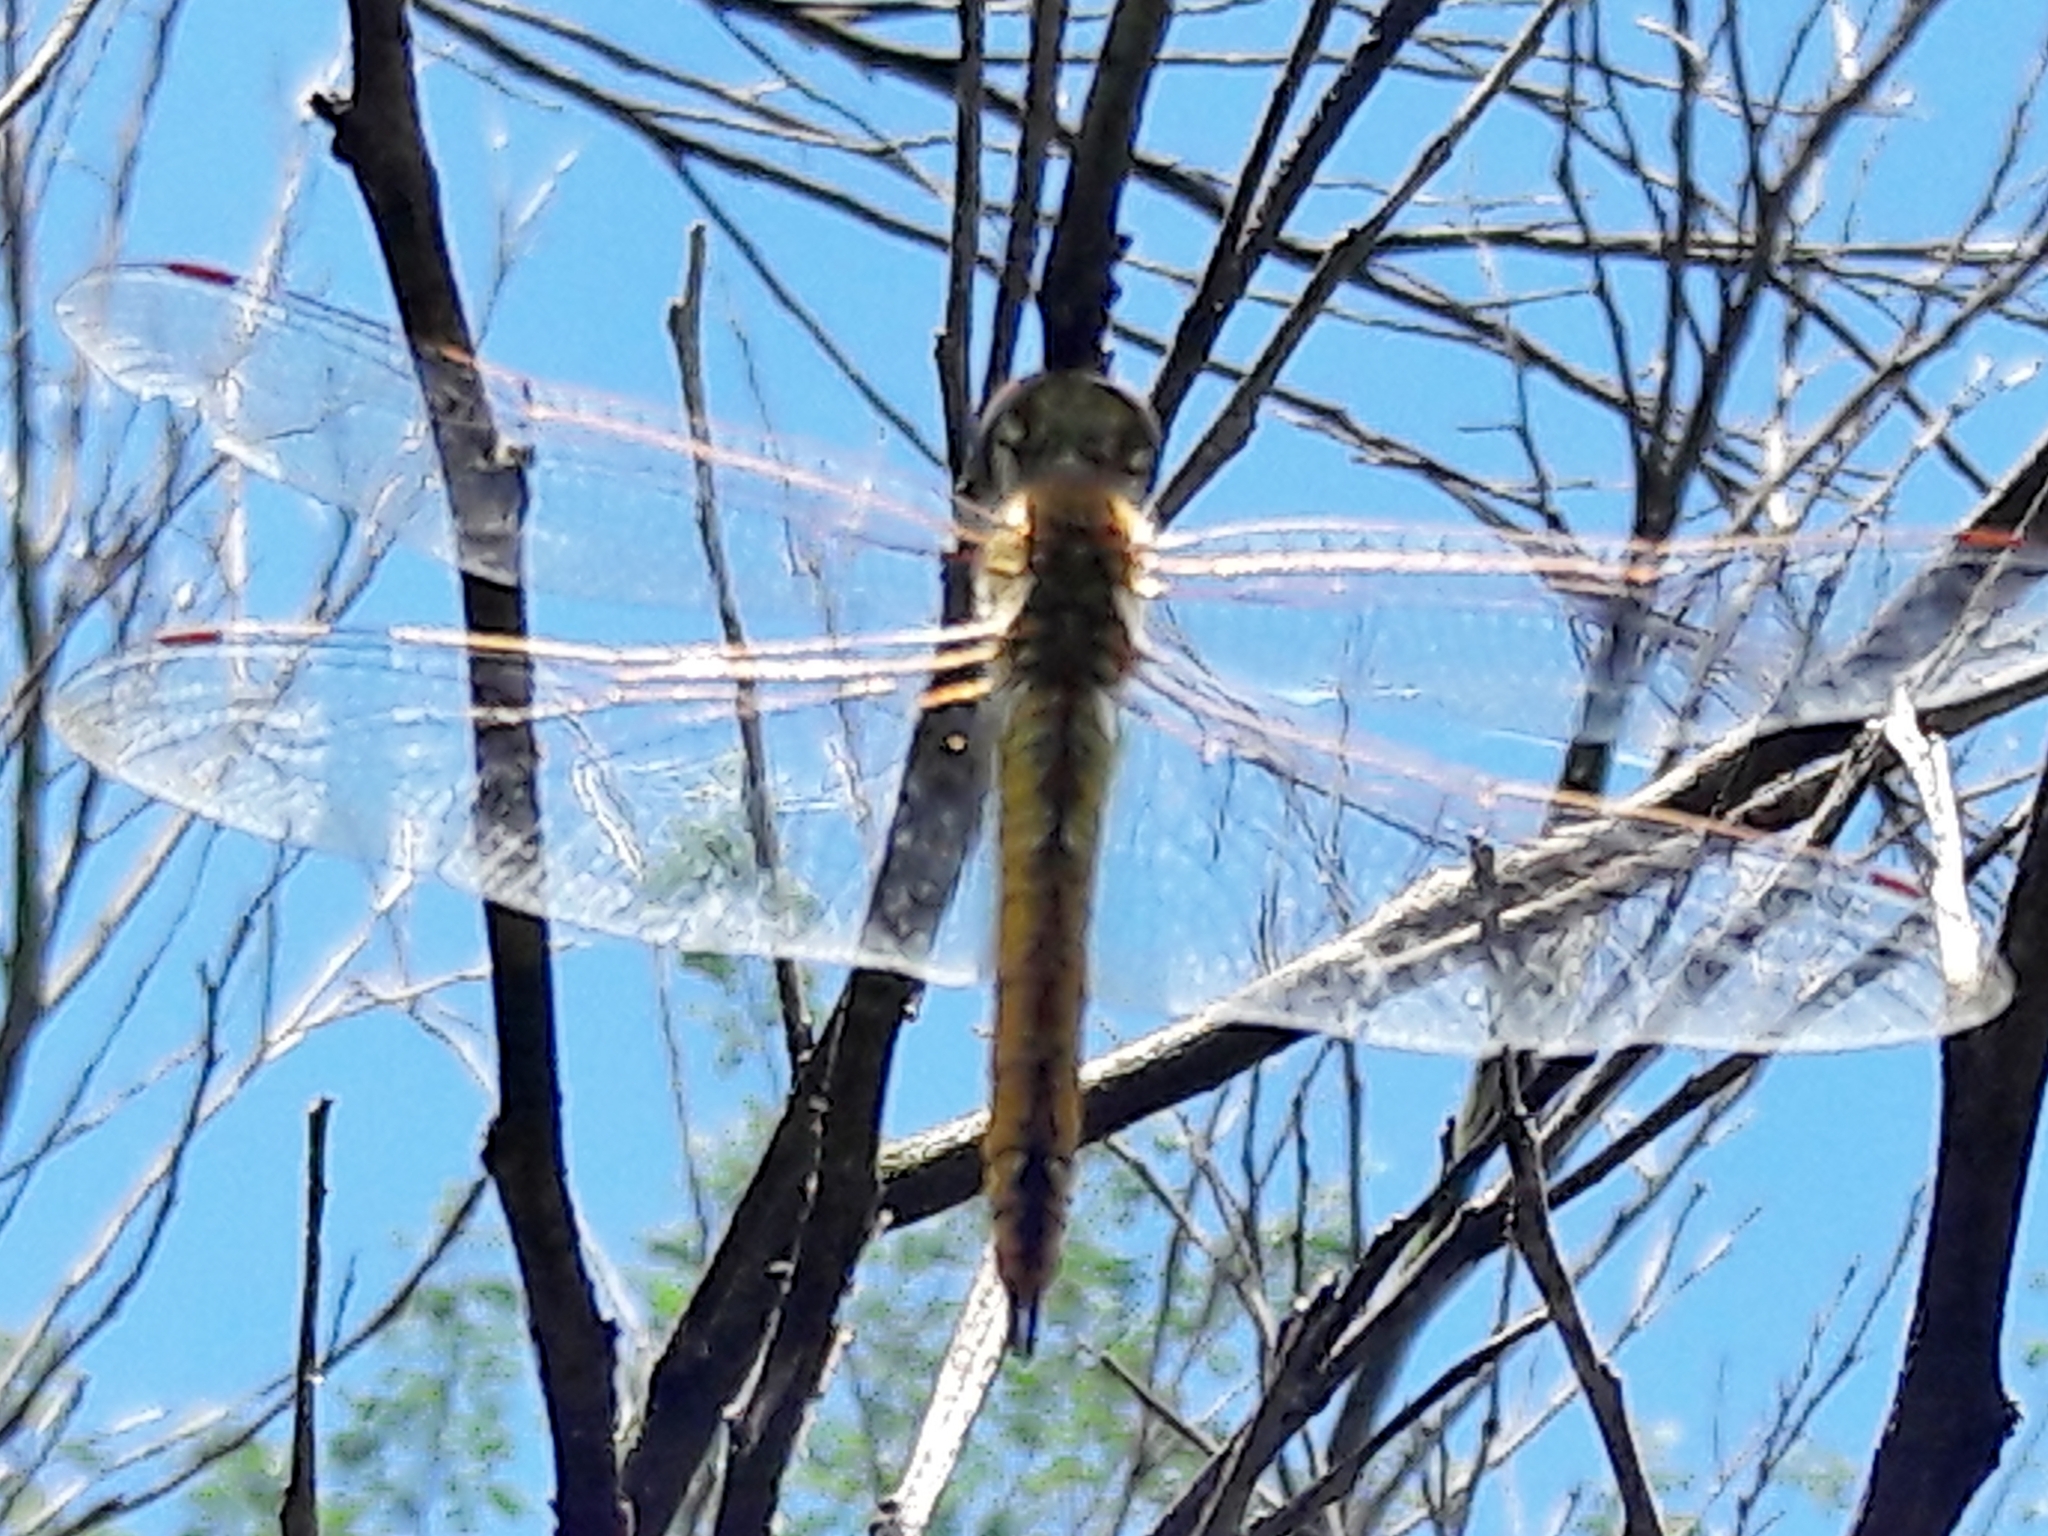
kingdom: Animalia
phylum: Arthropoda
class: Insecta
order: Odonata
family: Libellulidae
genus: Pantala
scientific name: Pantala flavescens
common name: Wandering glider
